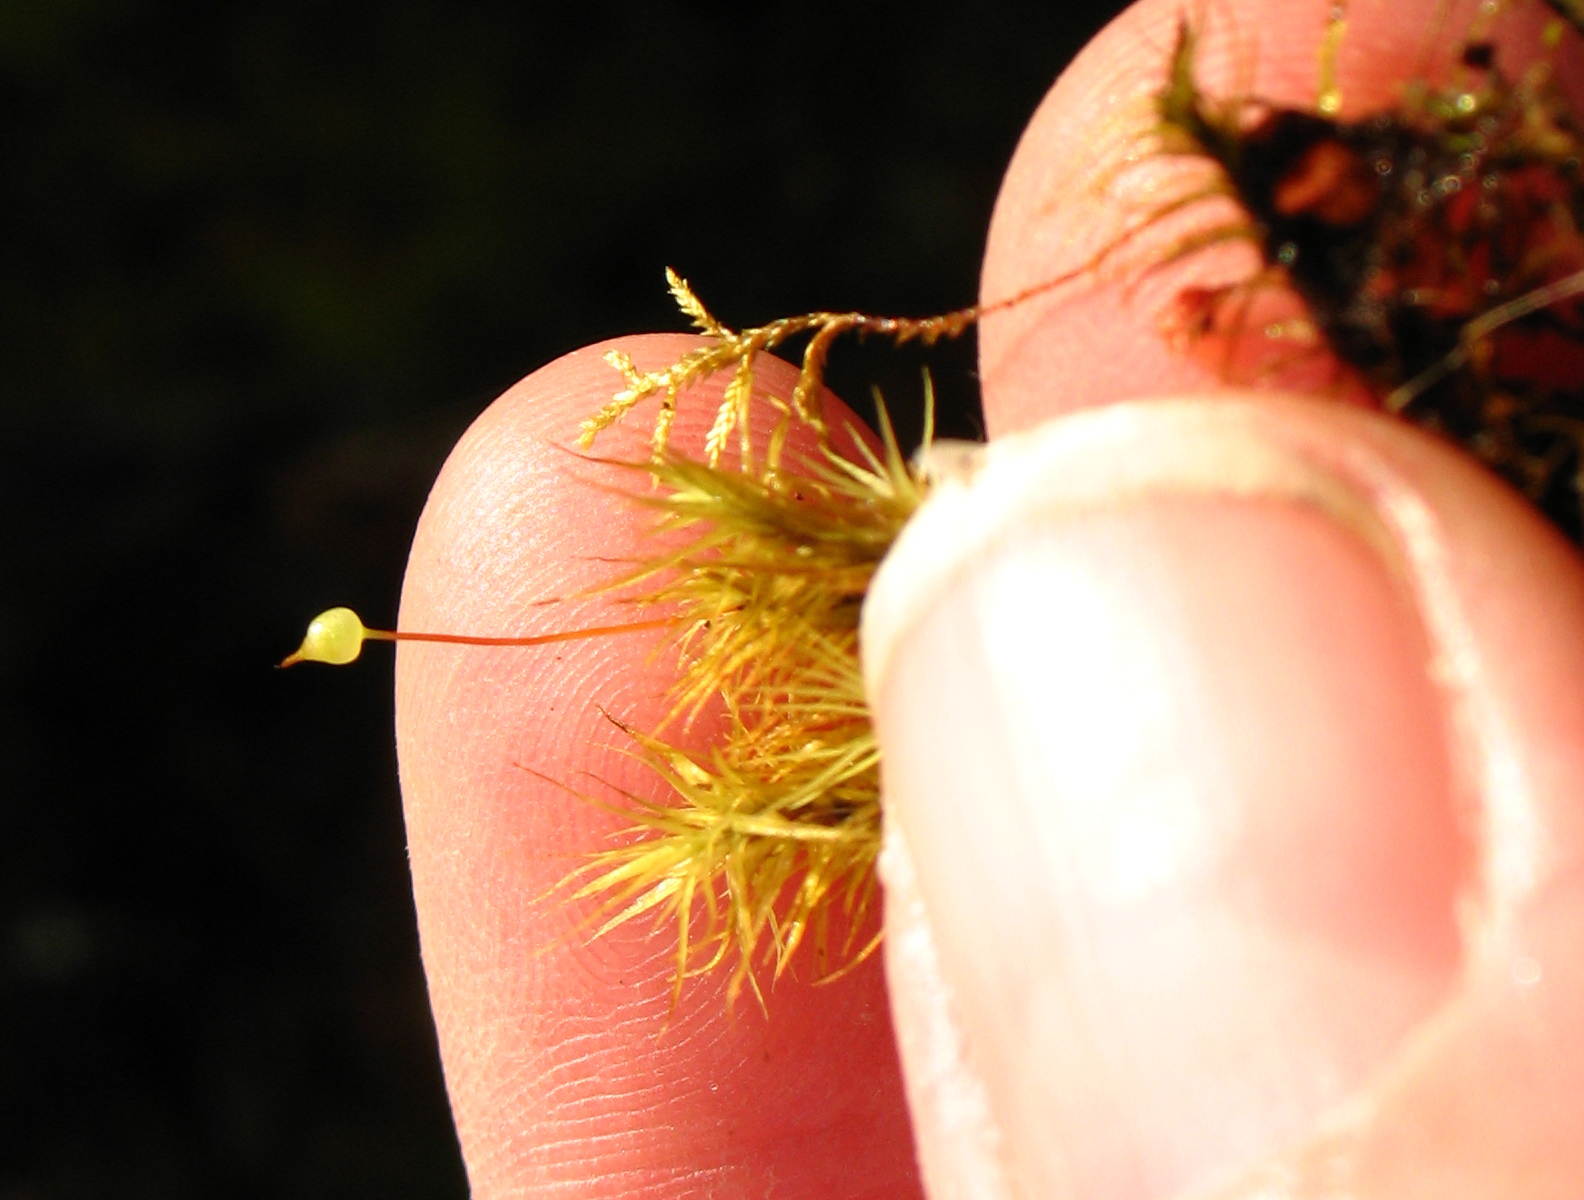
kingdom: Plantae
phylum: Bryophyta
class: Bryopsida
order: Bartramiales
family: Bartramiaceae
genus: Bartramia
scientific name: Bartramia ithyphylla
